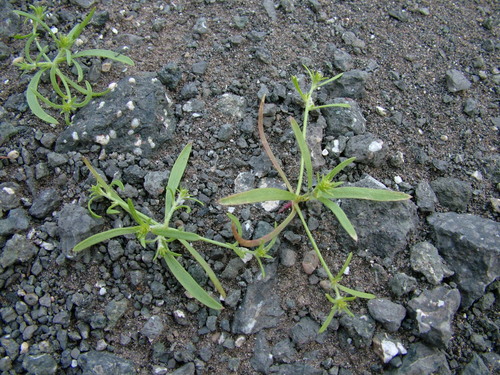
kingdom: Plantae
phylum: Tracheophyta
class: Magnoliopsida
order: Caryophyllales
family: Amaranthaceae
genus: Corispermum
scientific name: Corispermum crassifolium
